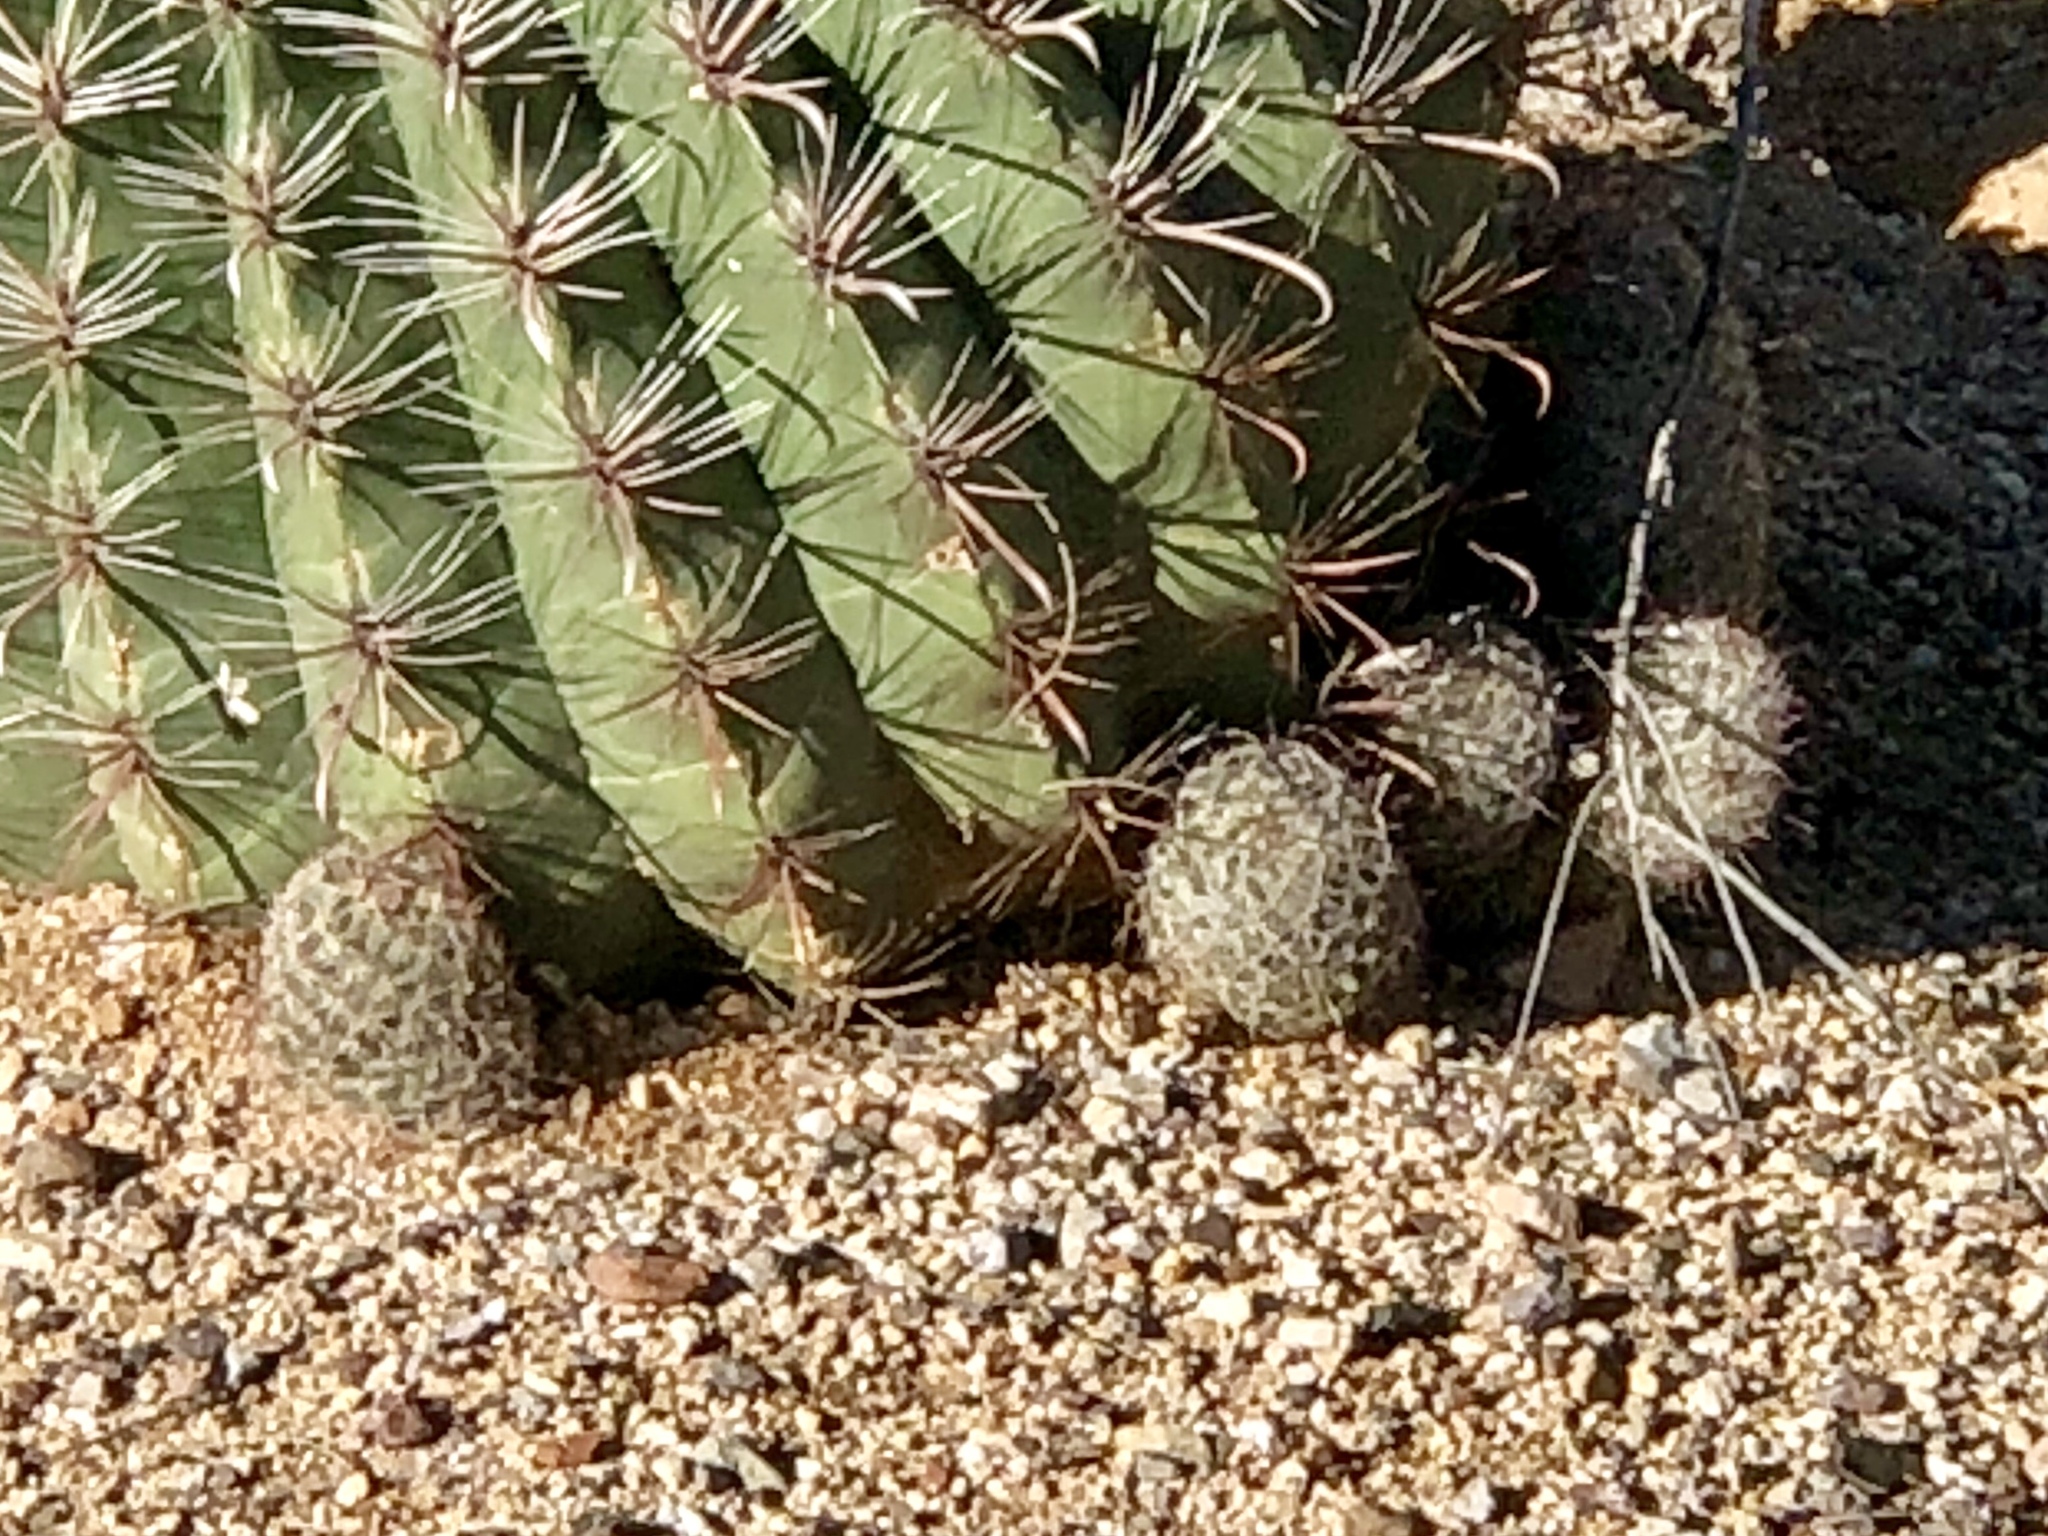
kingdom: Plantae
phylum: Tracheophyta
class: Magnoliopsida
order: Caryophyllales
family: Cactaceae
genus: Cochemiea
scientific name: Cochemiea grahamii
